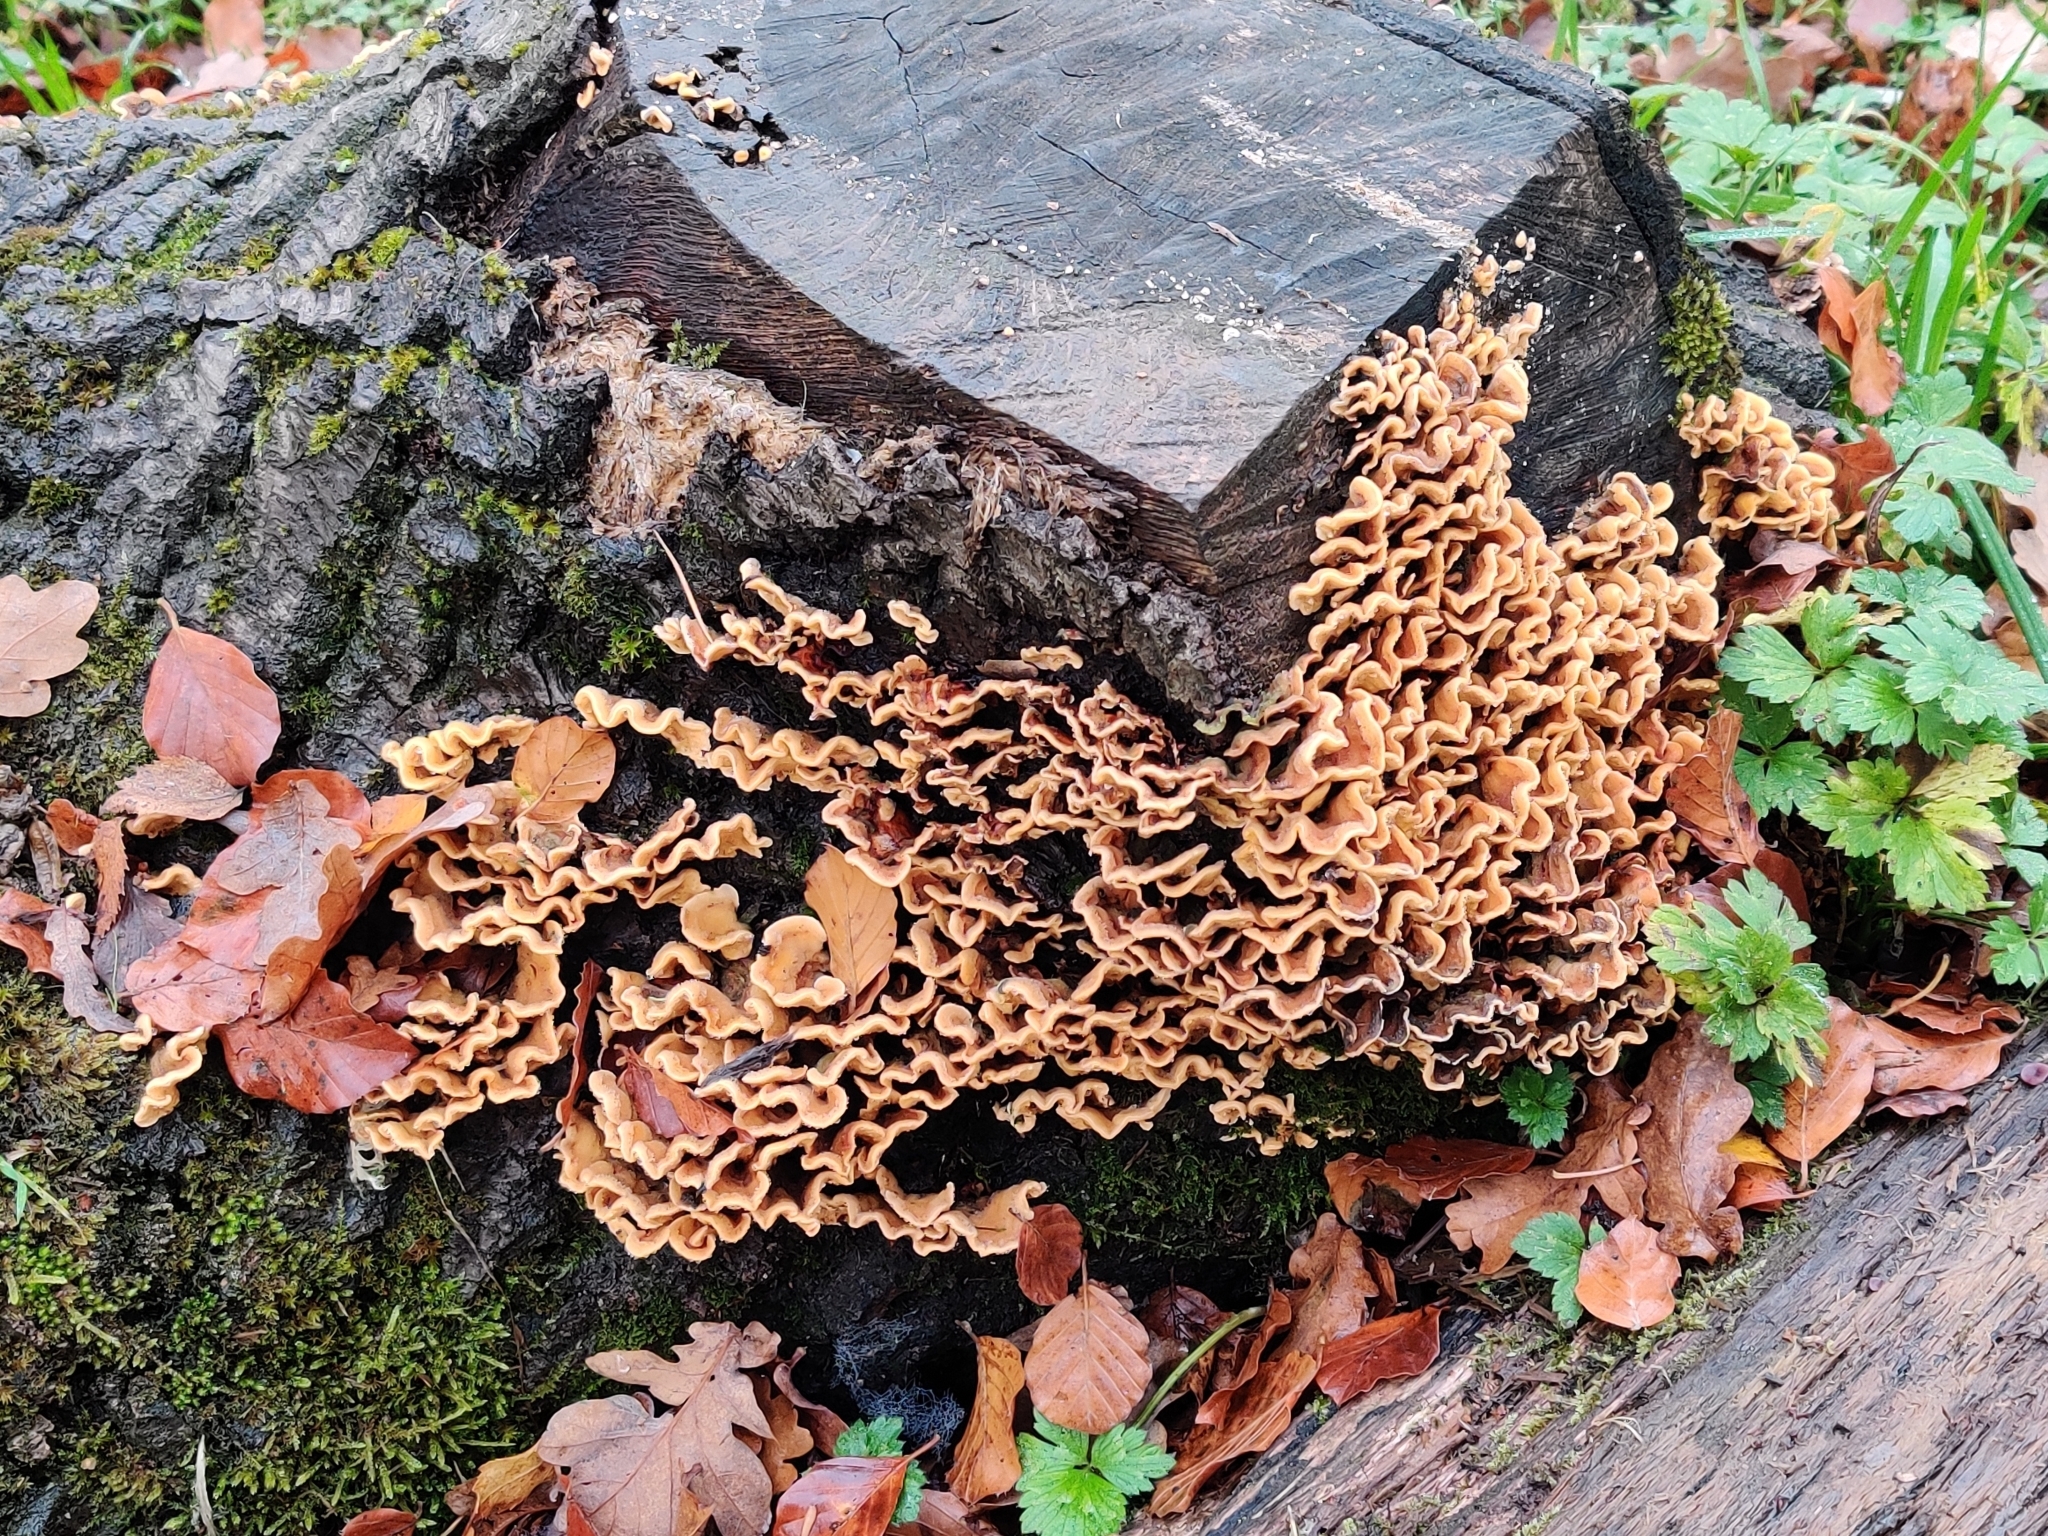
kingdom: Fungi
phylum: Basidiomycota
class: Agaricomycetes
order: Russulales
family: Stereaceae
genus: Stereum
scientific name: Stereum hirsutum
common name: Hairy curtain crust
